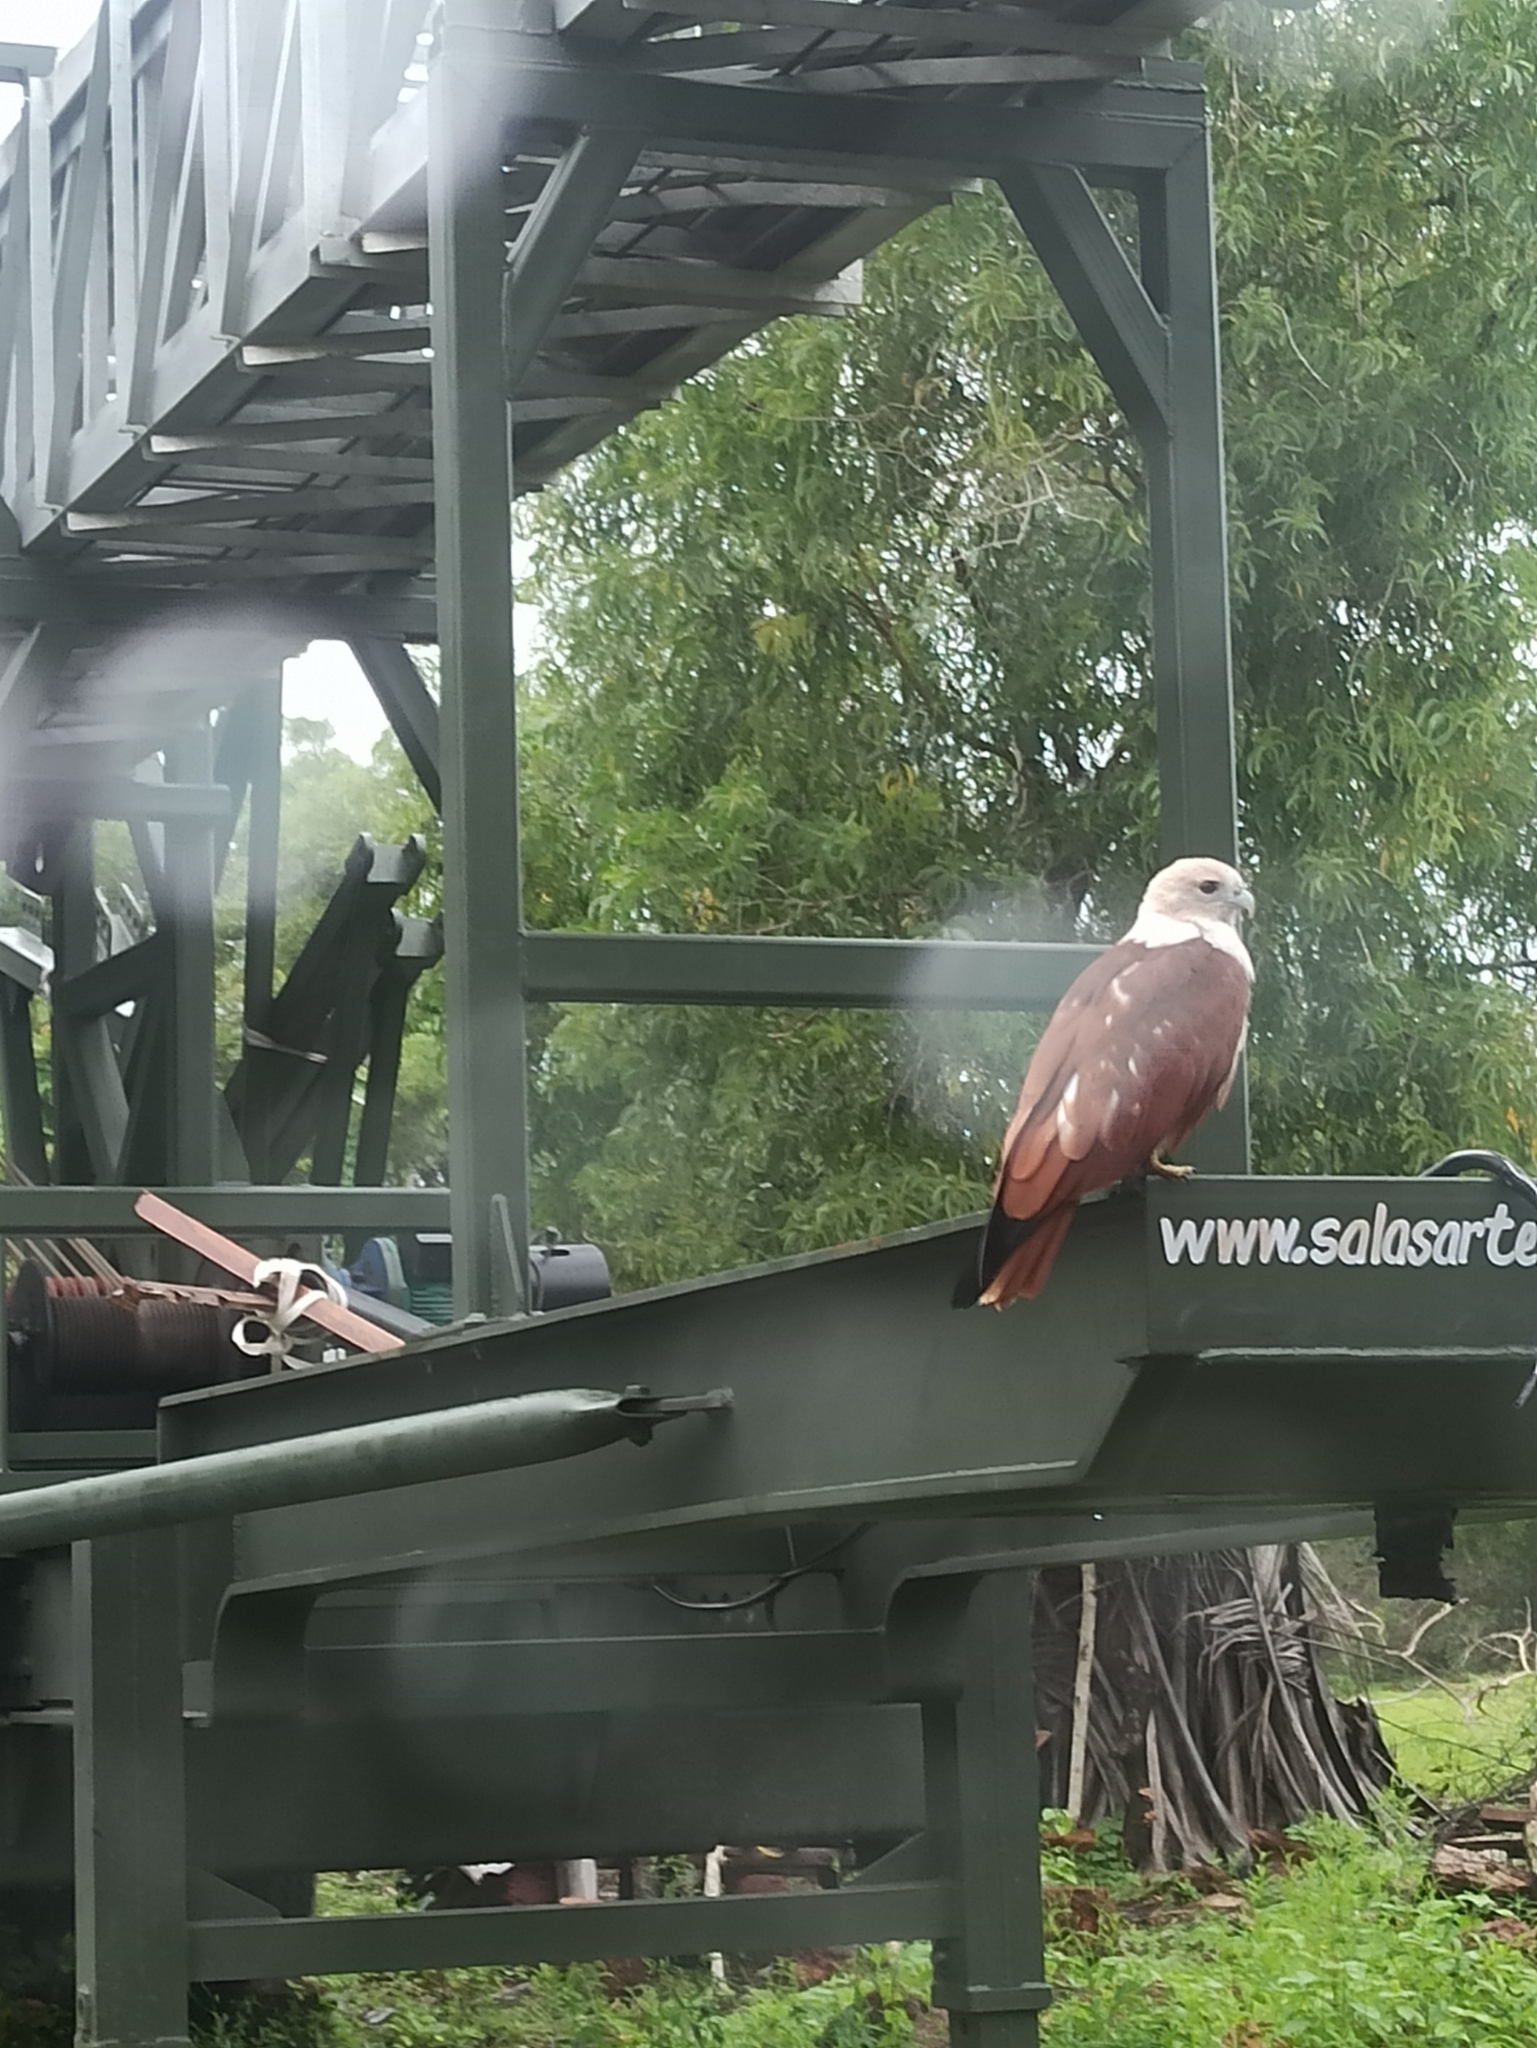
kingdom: Animalia
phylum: Chordata
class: Aves
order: Accipitriformes
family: Accipitridae
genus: Haliastur
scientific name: Haliastur indus
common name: Brahminy kite
